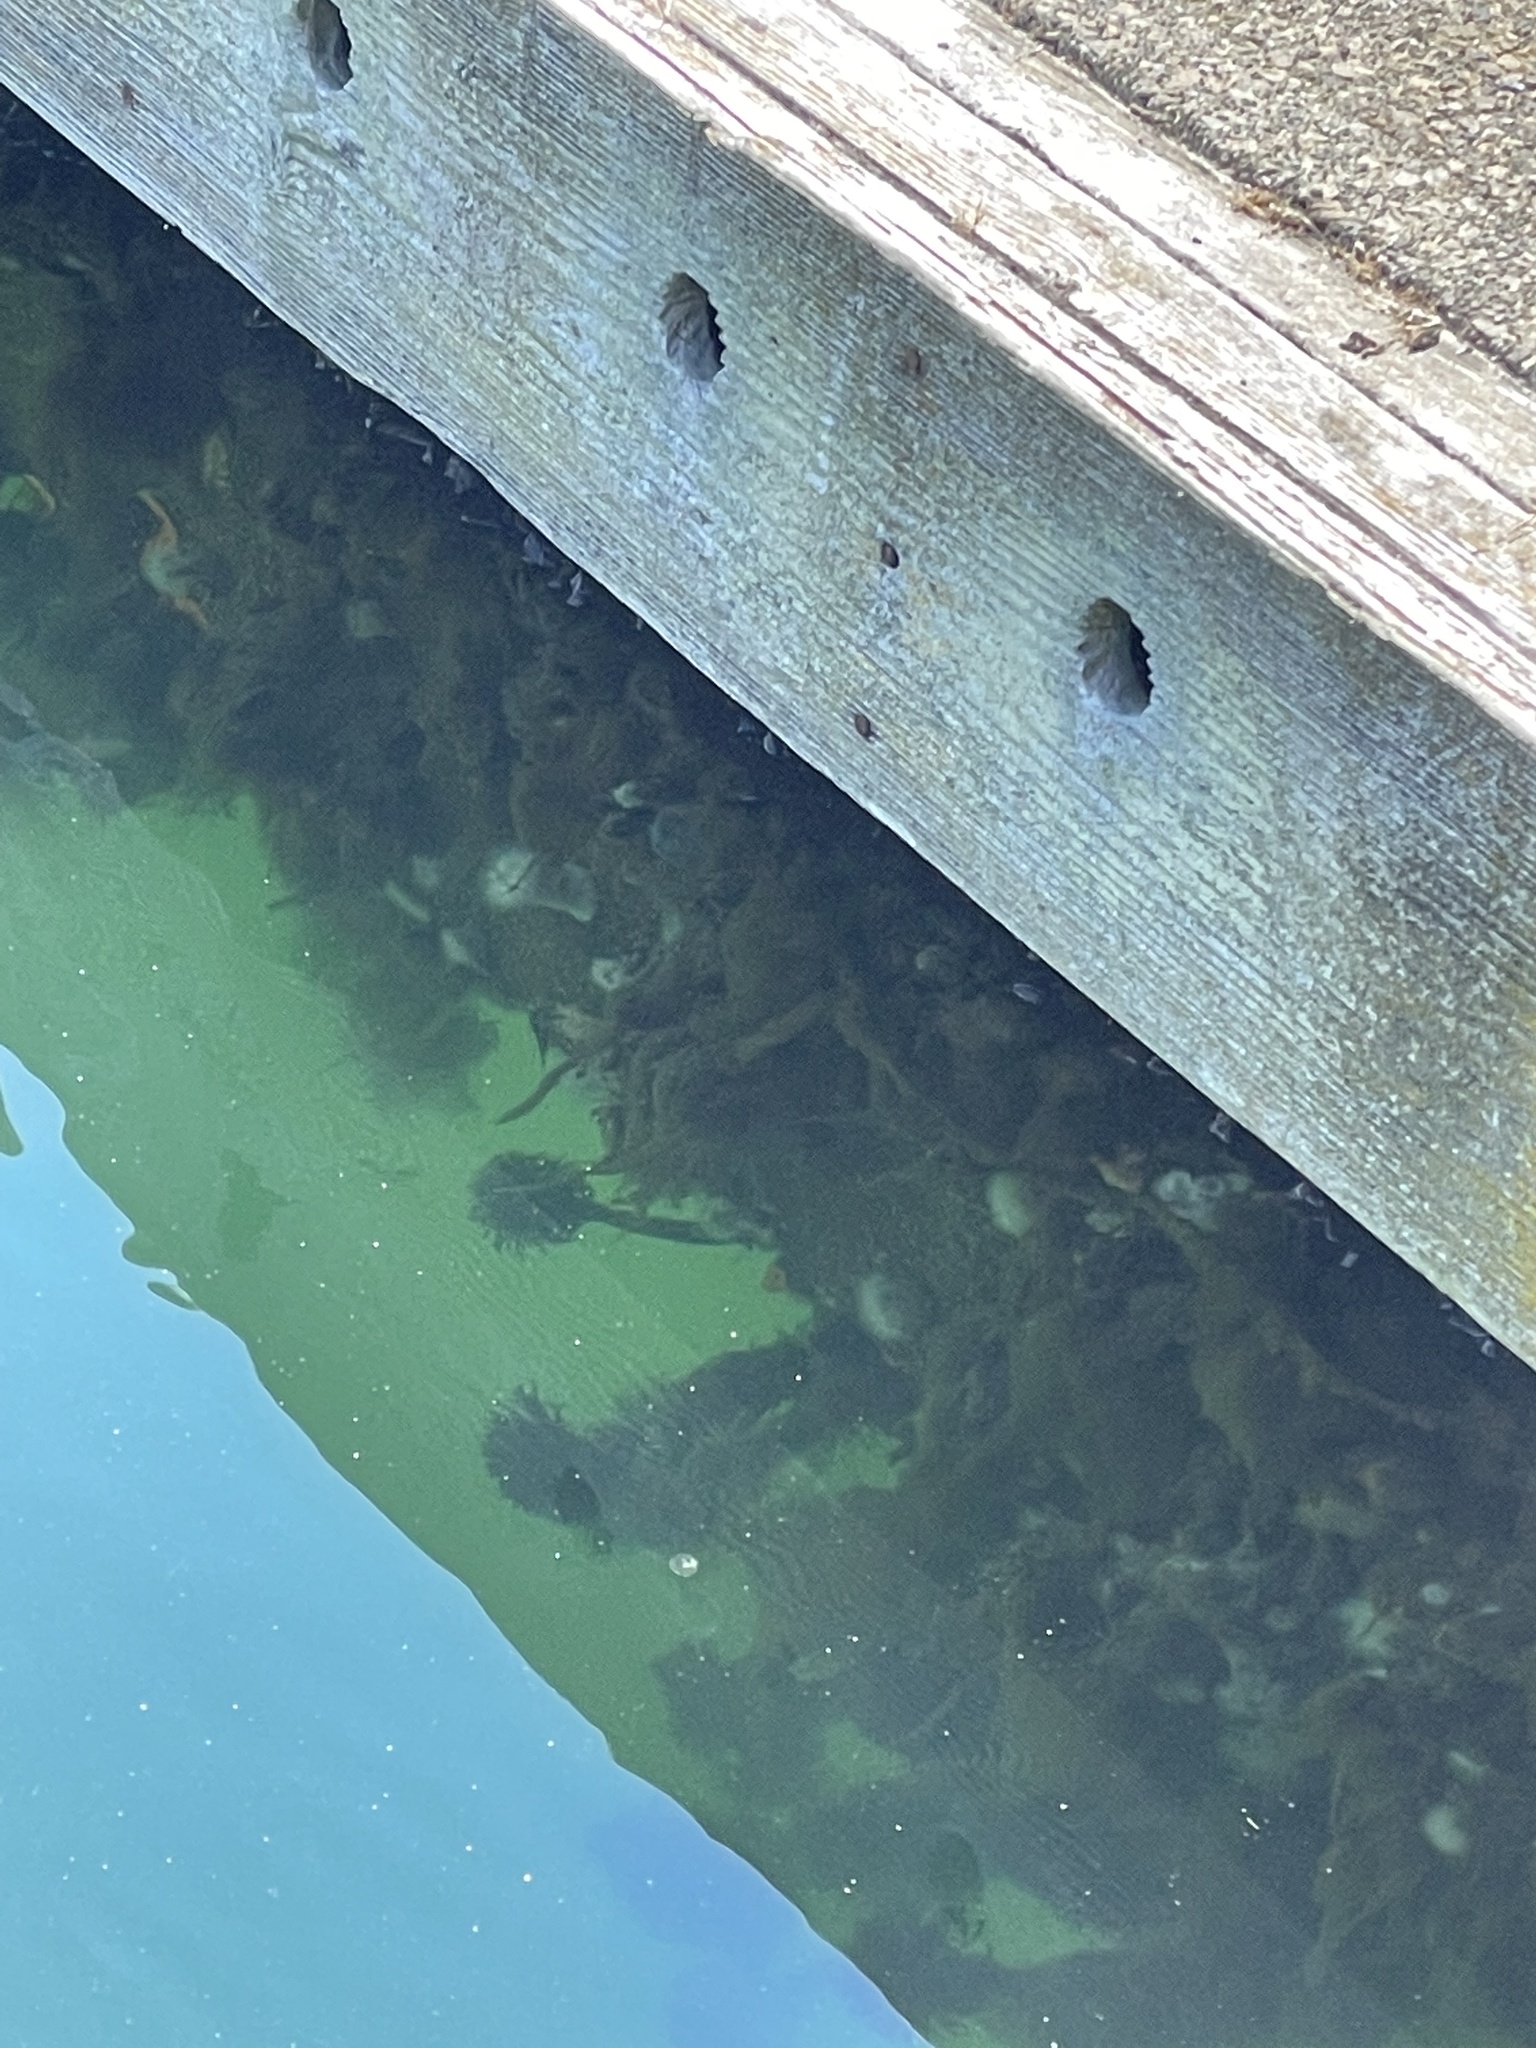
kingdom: Animalia
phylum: Cnidaria
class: Anthozoa
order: Actiniaria
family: Metridiidae
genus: Metridium
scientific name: Metridium senile
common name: Clonal plumose anemone
